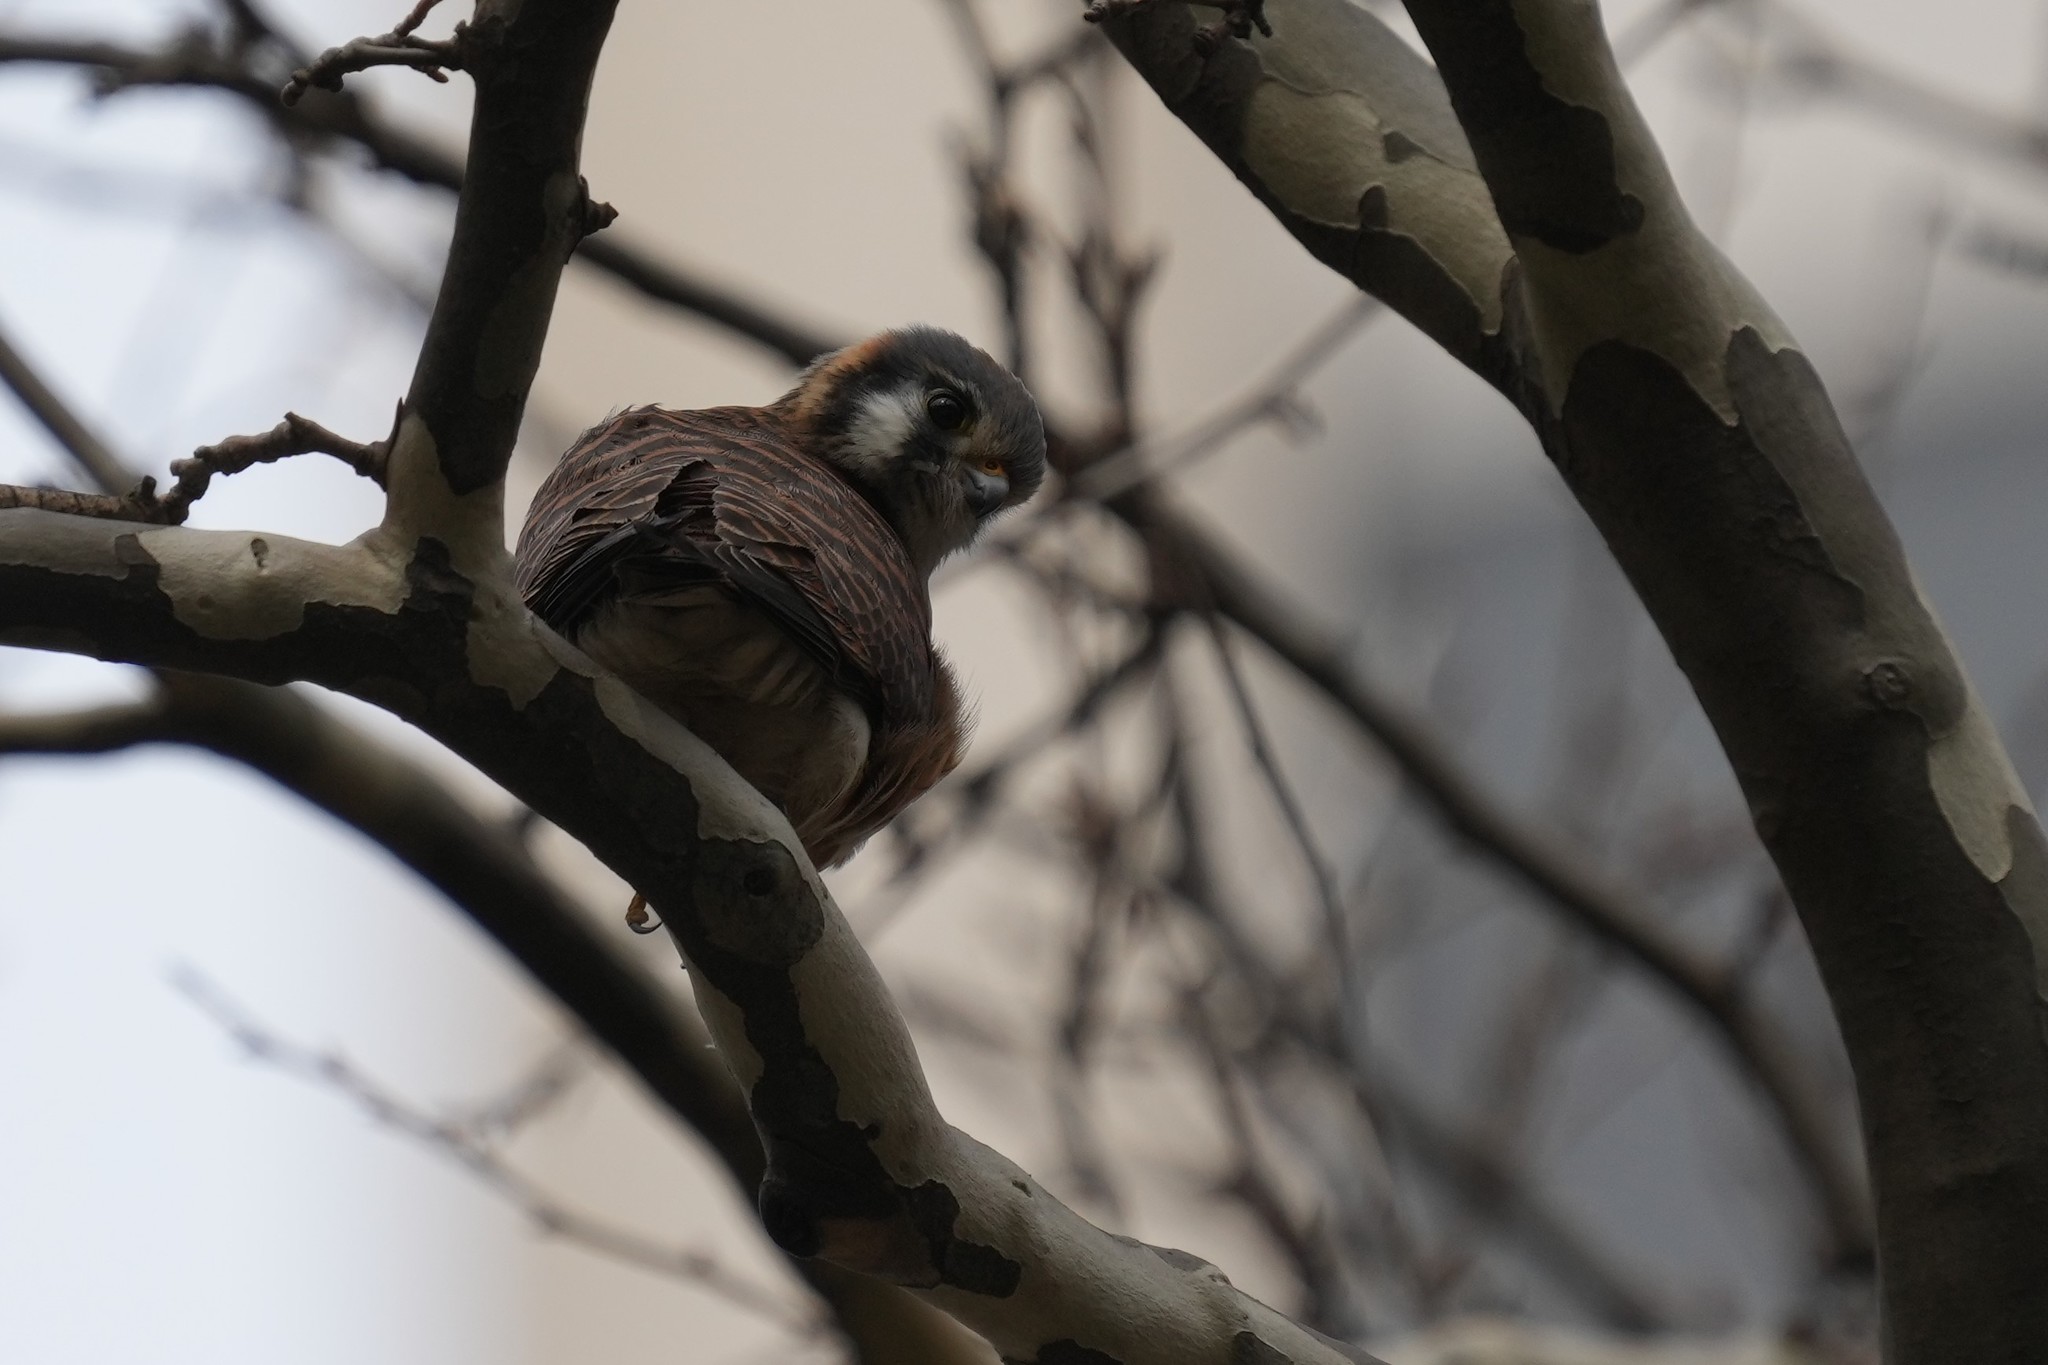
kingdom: Animalia
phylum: Chordata
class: Aves
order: Falconiformes
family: Falconidae
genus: Falco
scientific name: Falco sparverius
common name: American kestrel
